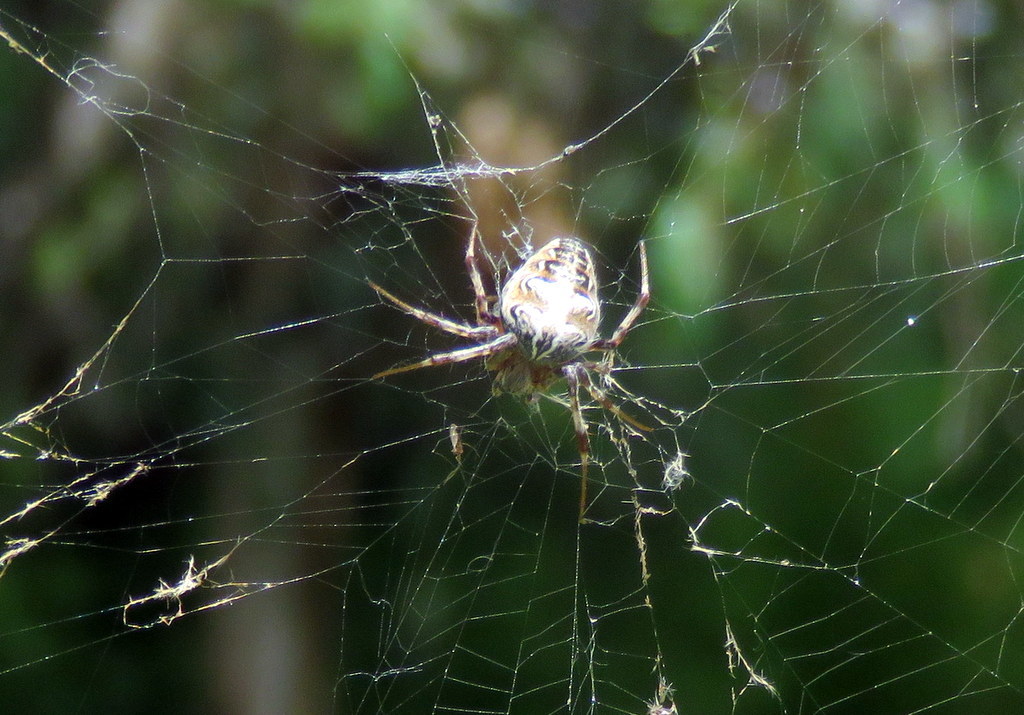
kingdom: Animalia
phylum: Arthropoda
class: Arachnida
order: Araneae
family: Araneidae
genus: Metepeira
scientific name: Metepeira
